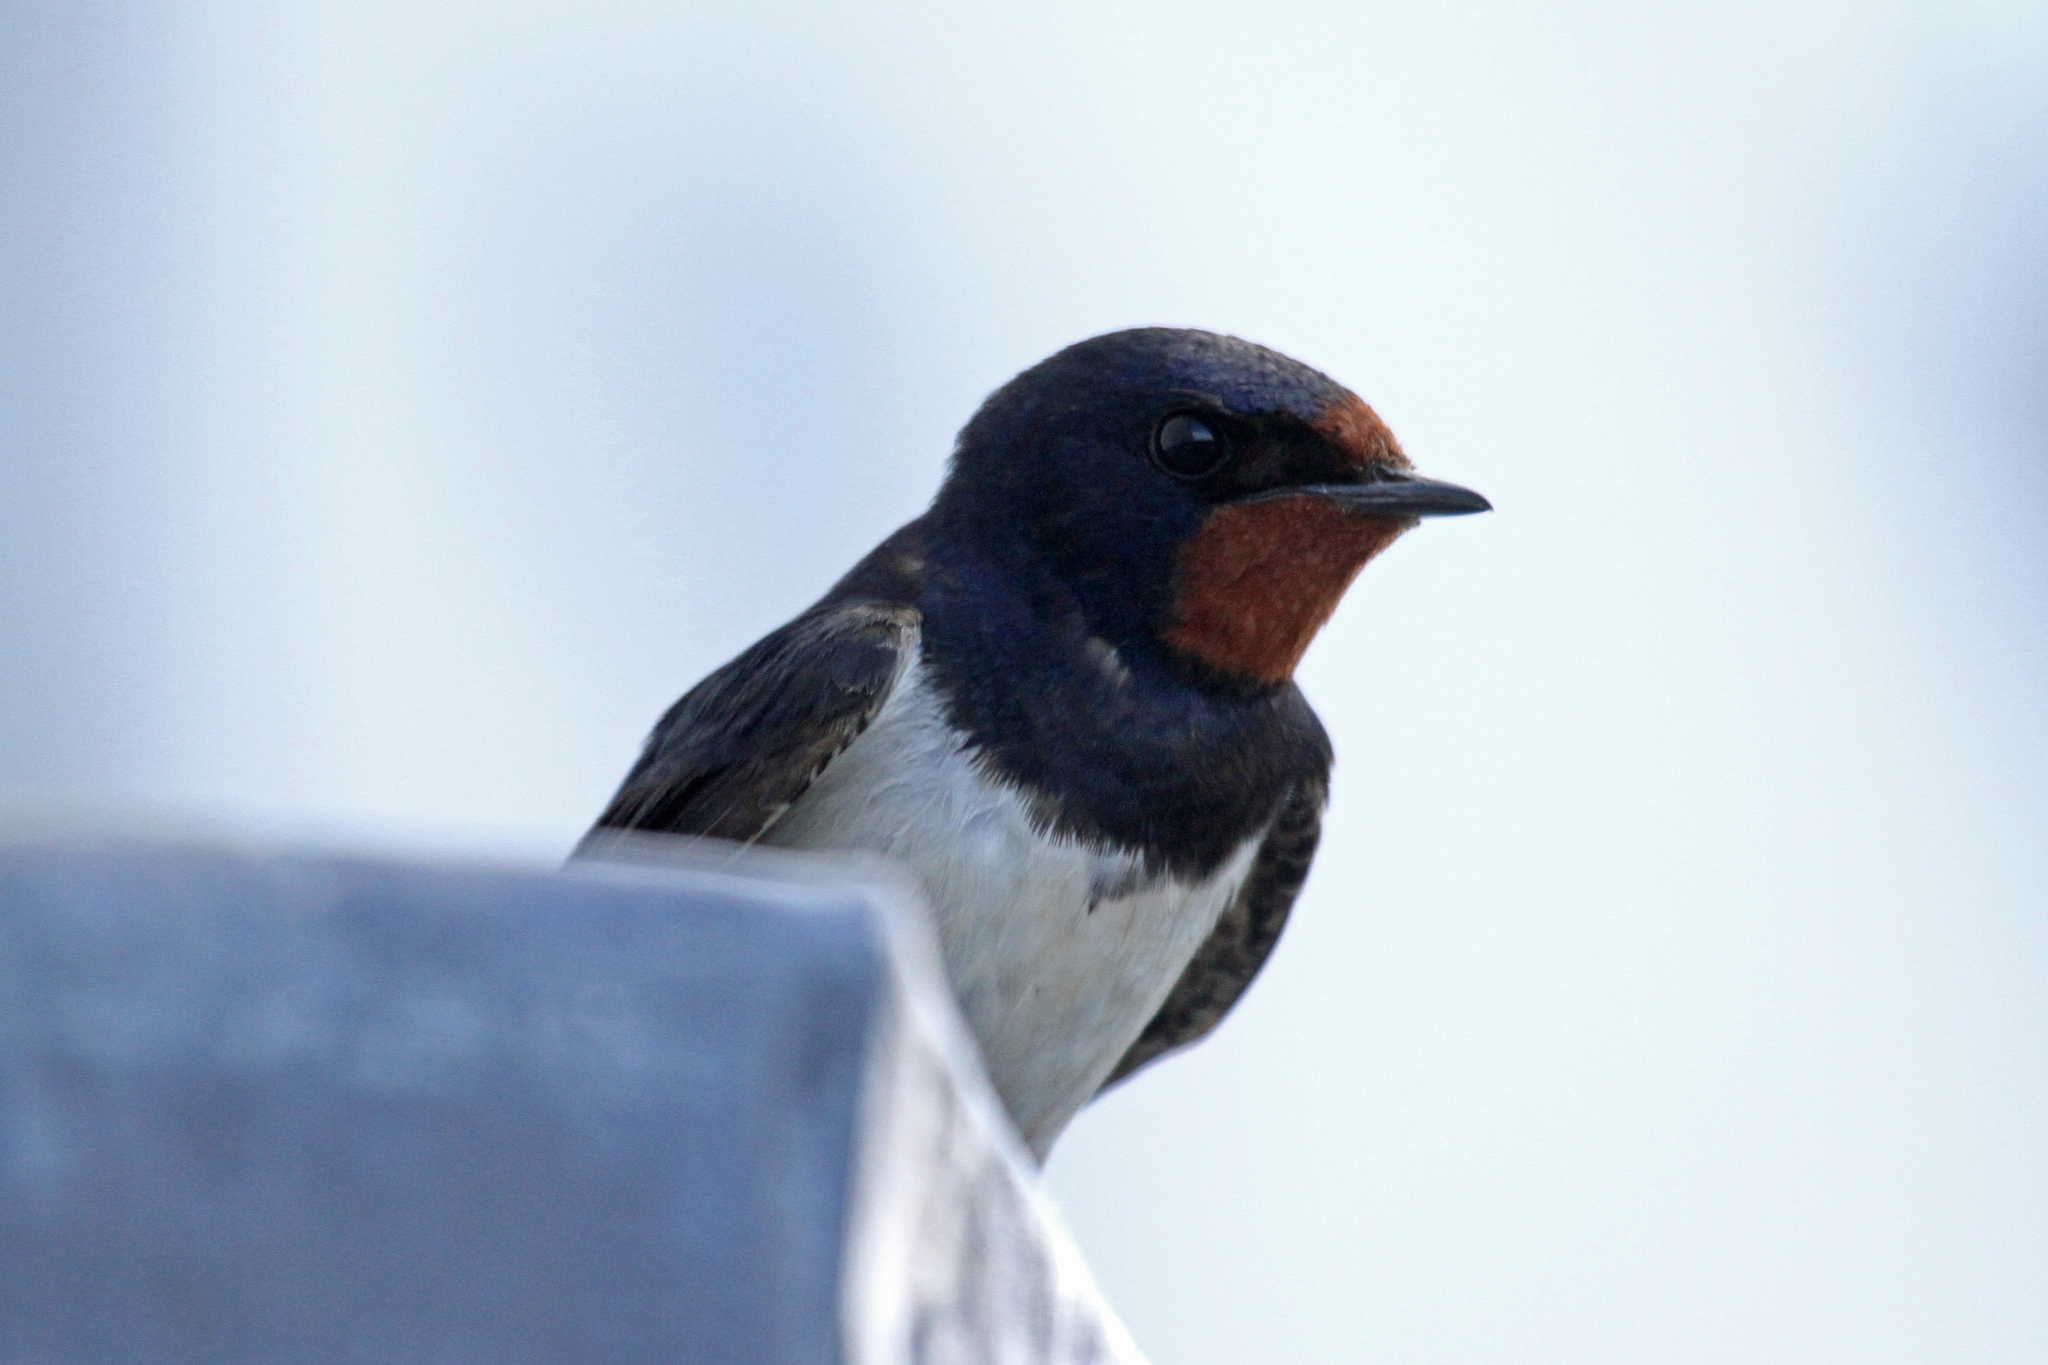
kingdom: Animalia
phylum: Chordata
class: Aves
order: Passeriformes
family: Hirundinidae
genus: Hirundo
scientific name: Hirundo rustica
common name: Barn swallow
